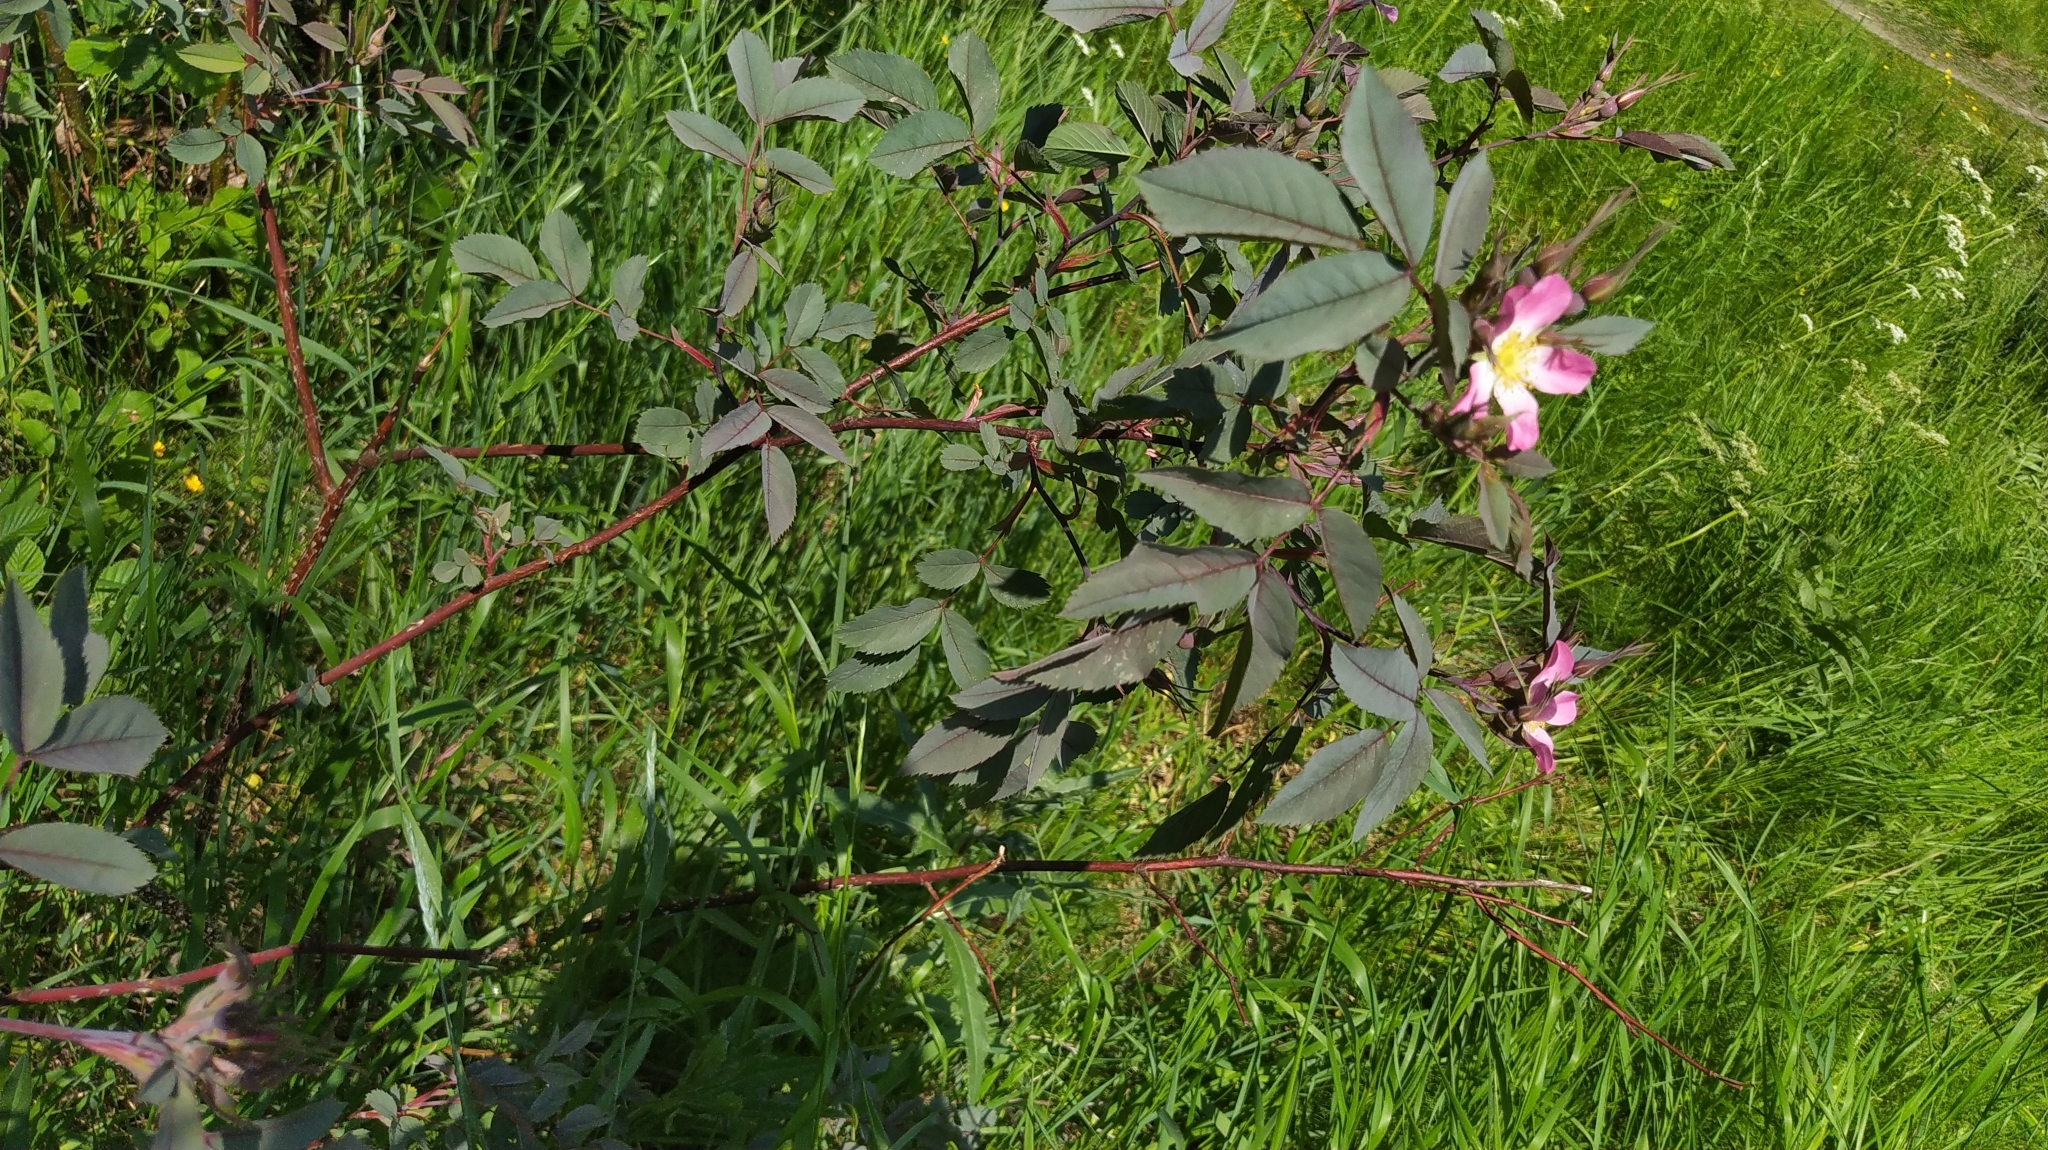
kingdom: Plantae
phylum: Tracheophyta
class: Magnoliopsida
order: Rosales
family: Rosaceae
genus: Rosa
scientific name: Rosa glauca
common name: Redleaf rose
